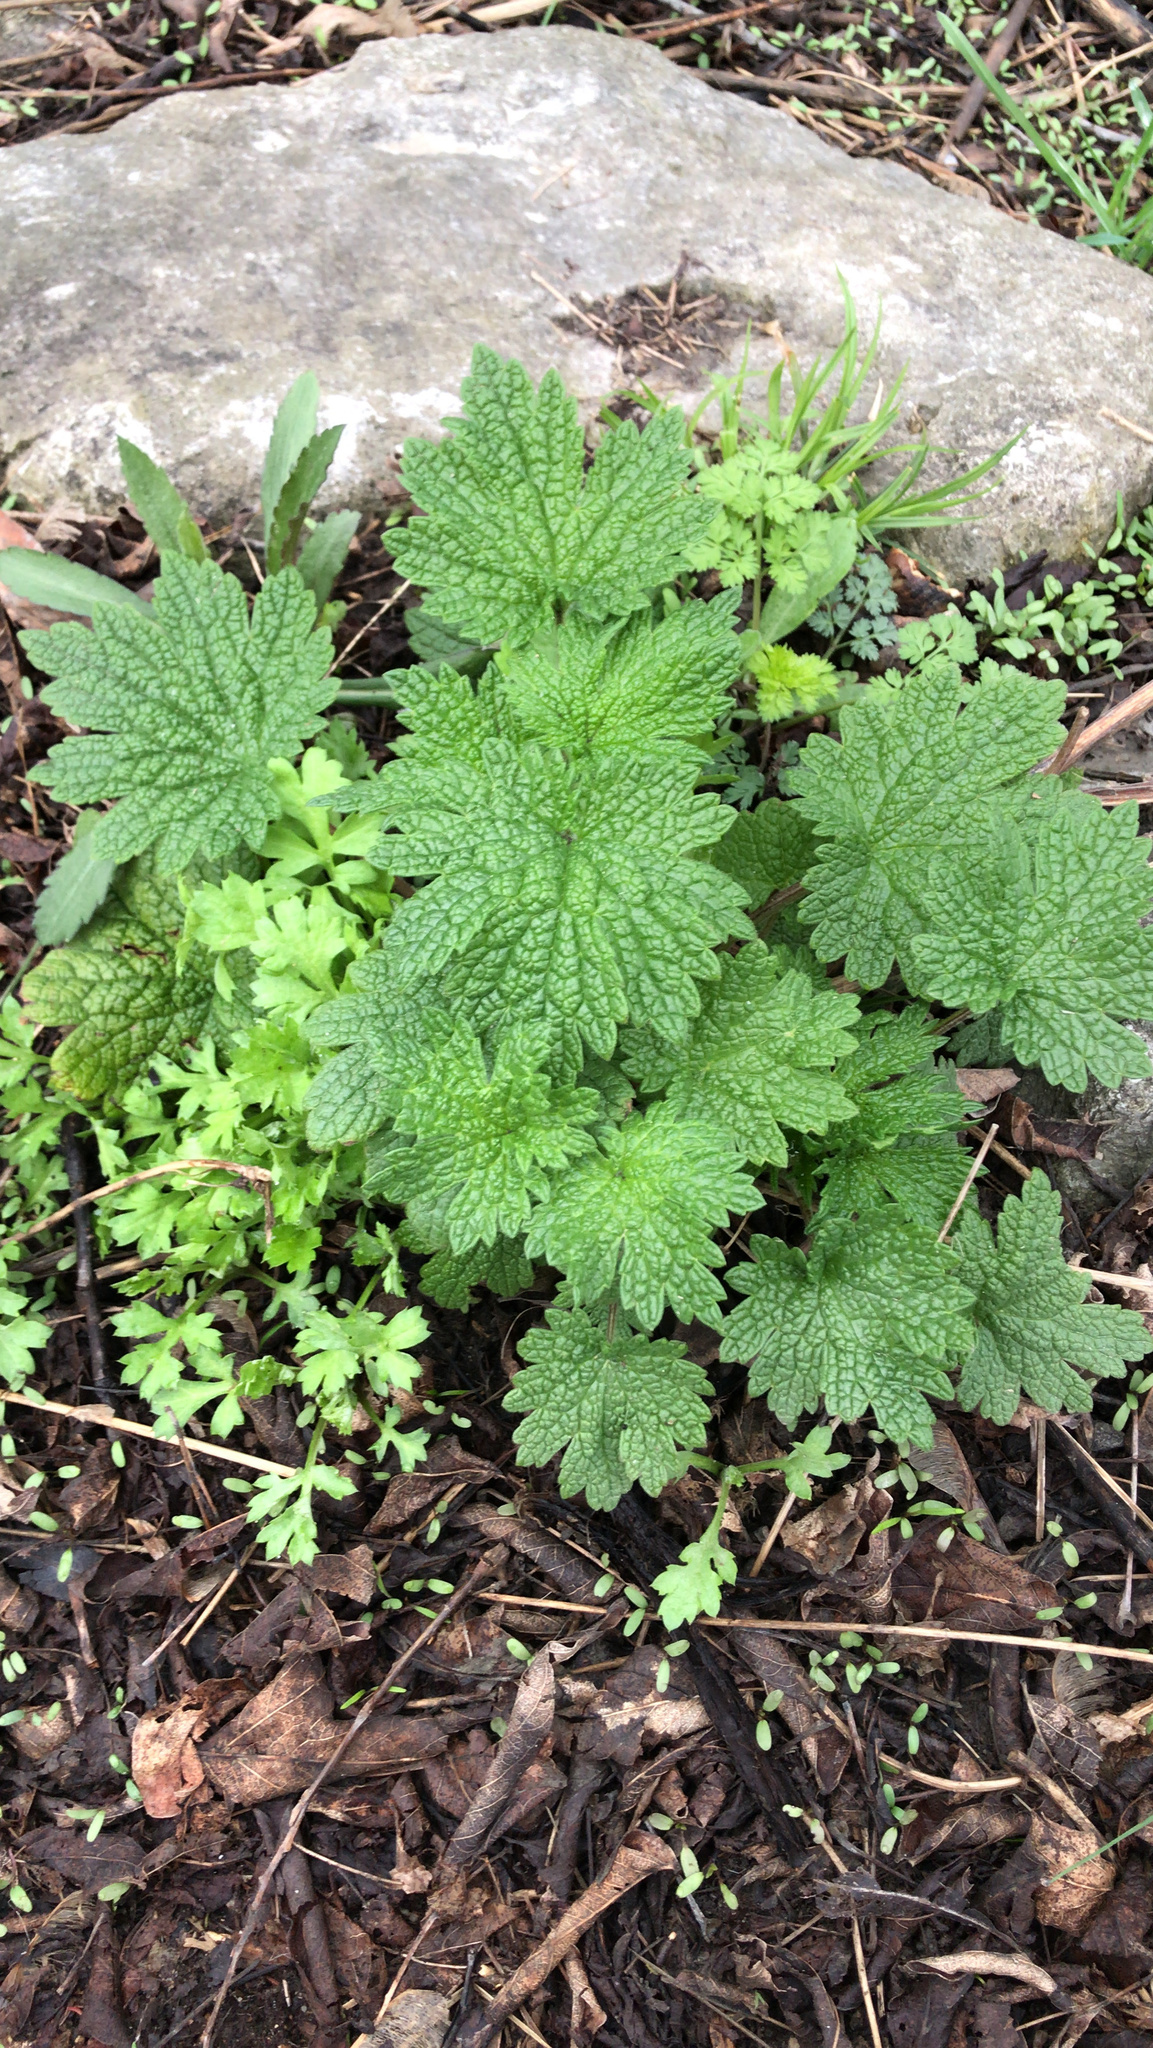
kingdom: Plantae
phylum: Tracheophyta
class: Magnoliopsida
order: Lamiales
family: Lamiaceae
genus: Leonurus
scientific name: Leonurus cardiaca
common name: Motherwort
